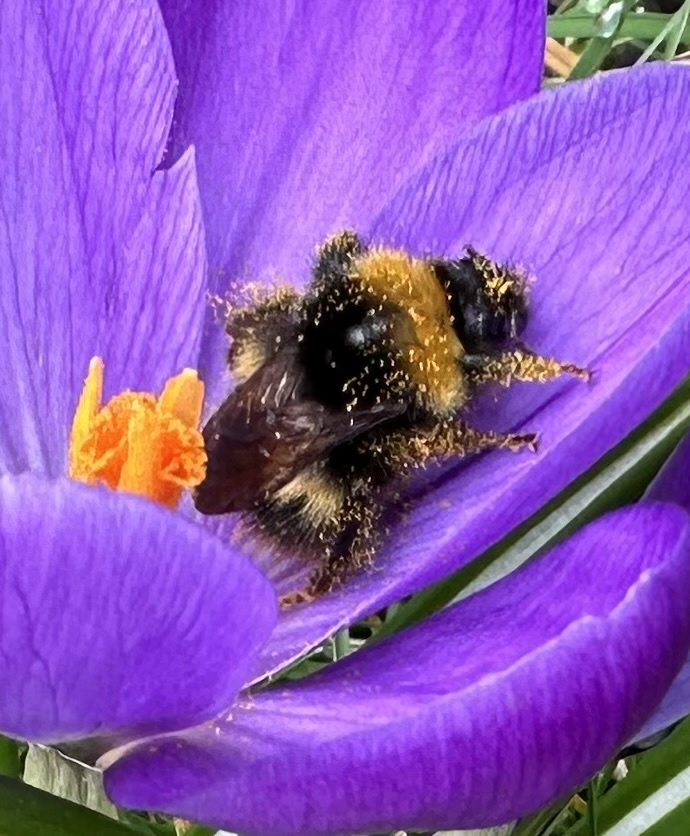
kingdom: Animalia
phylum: Arthropoda
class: Insecta
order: Hymenoptera
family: Apidae
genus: Bombus
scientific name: Bombus pratorum
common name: Early humble-bee
